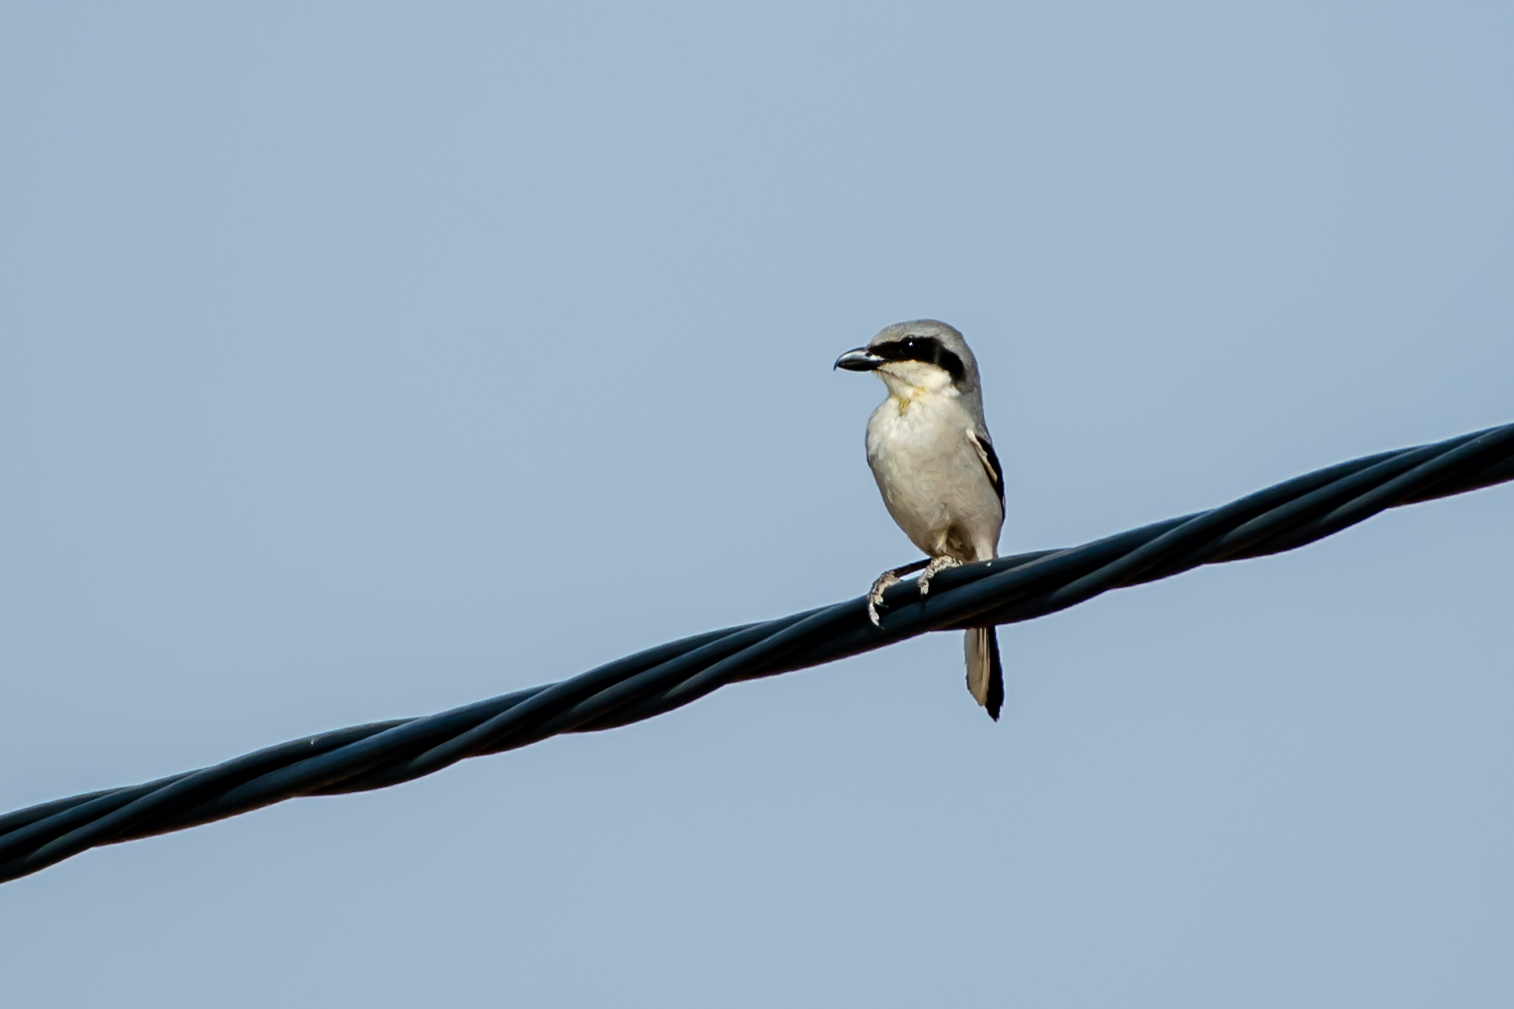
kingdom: Animalia
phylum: Chordata
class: Aves
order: Passeriformes
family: Laniidae
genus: Lanius
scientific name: Lanius excubitor
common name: Great grey shrike
